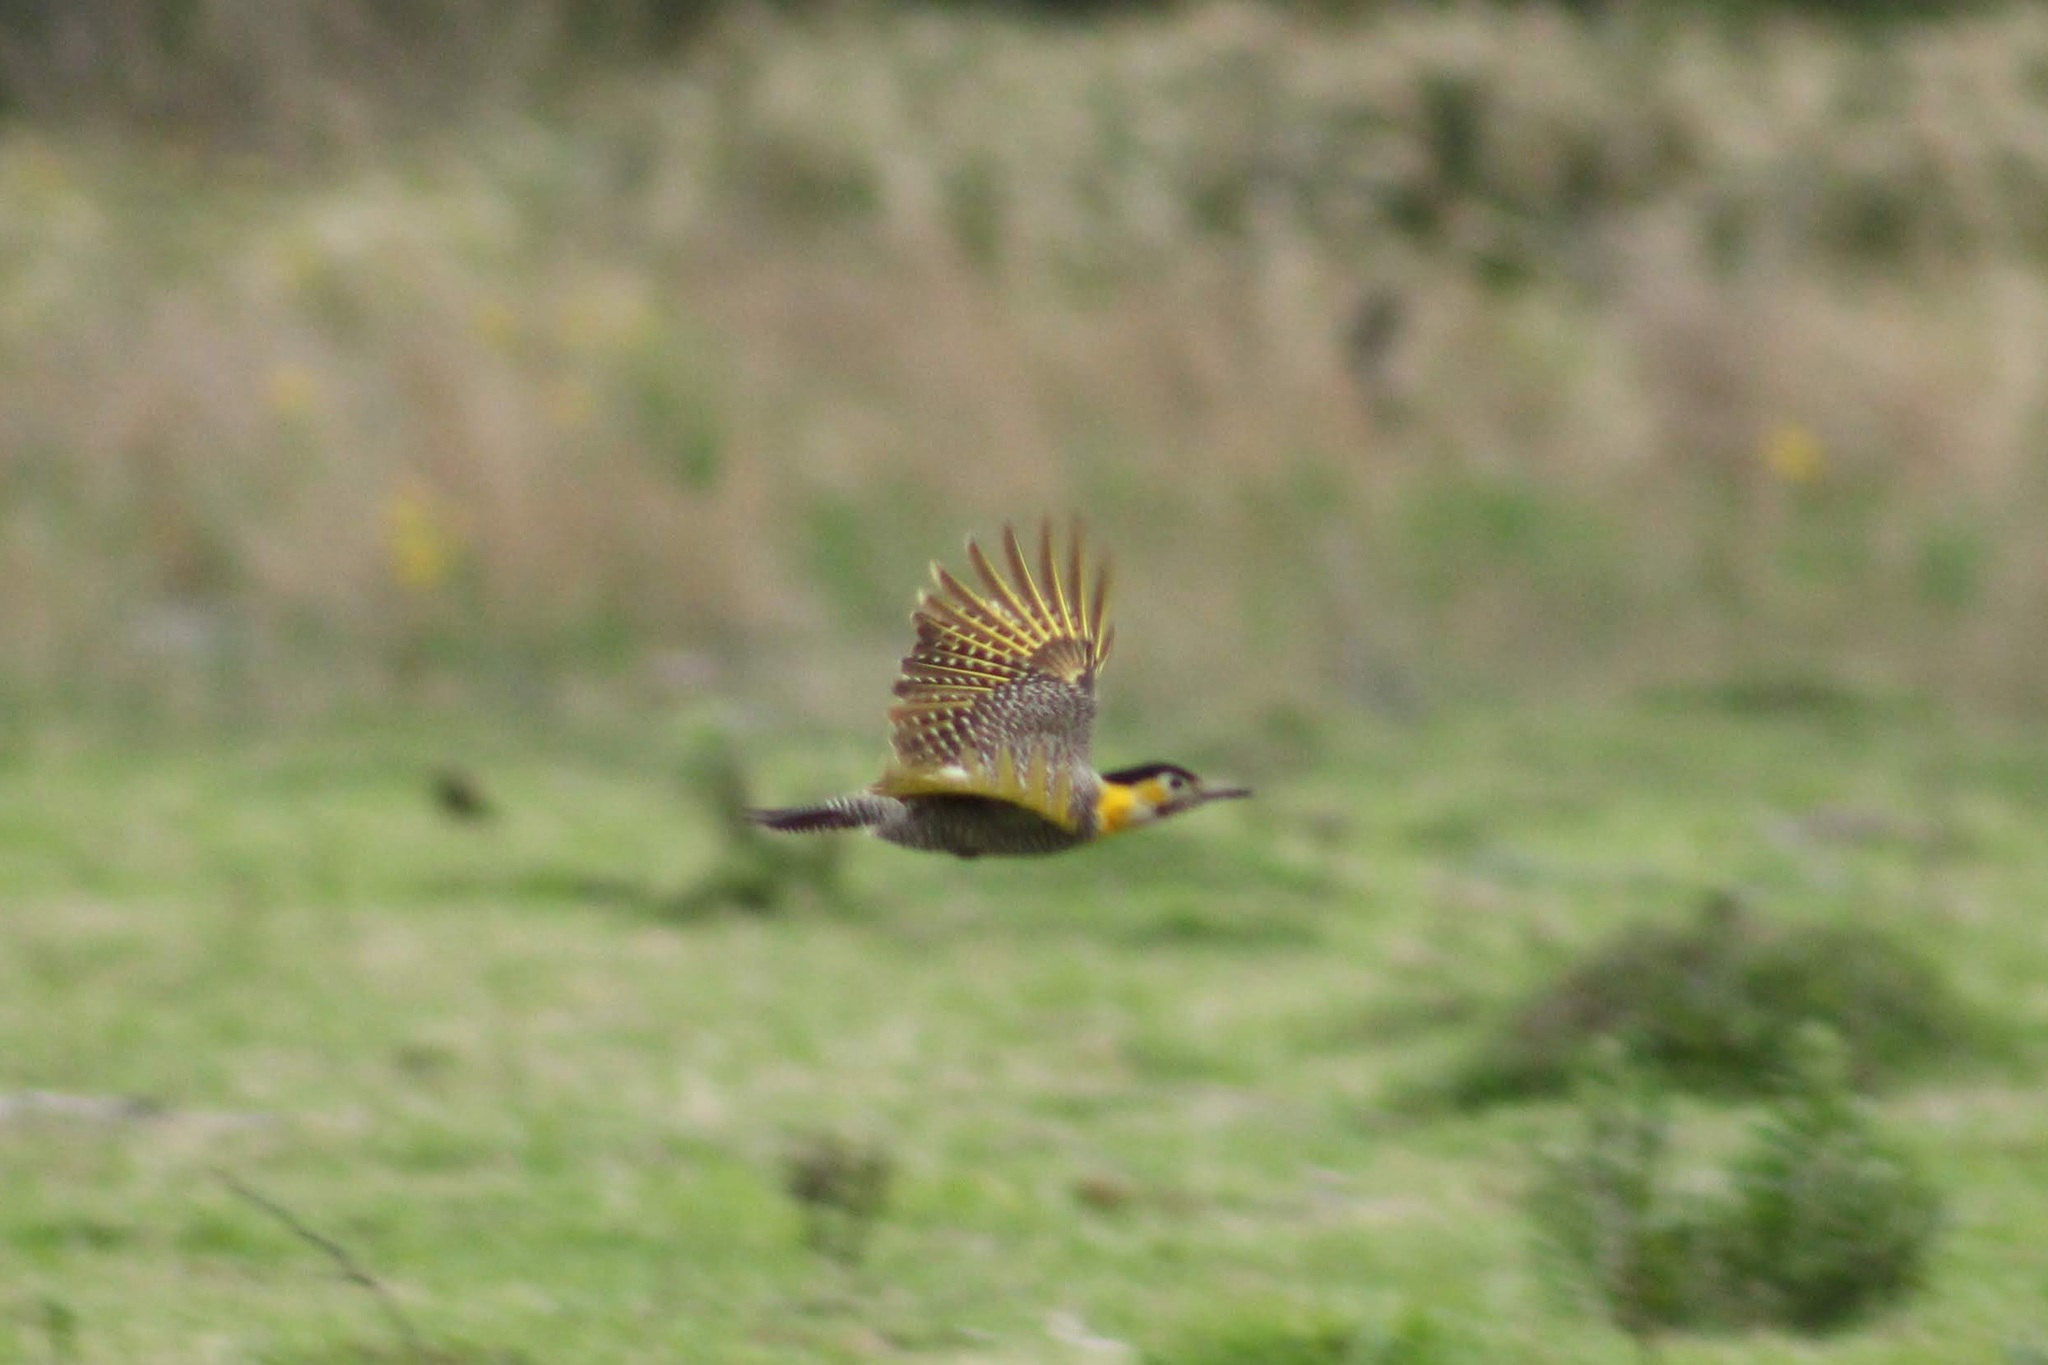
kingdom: Animalia
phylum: Chordata
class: Aves
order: Piciformes
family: Picidae
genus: Colaptes
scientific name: Colaptes campestris
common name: Campo flicker
